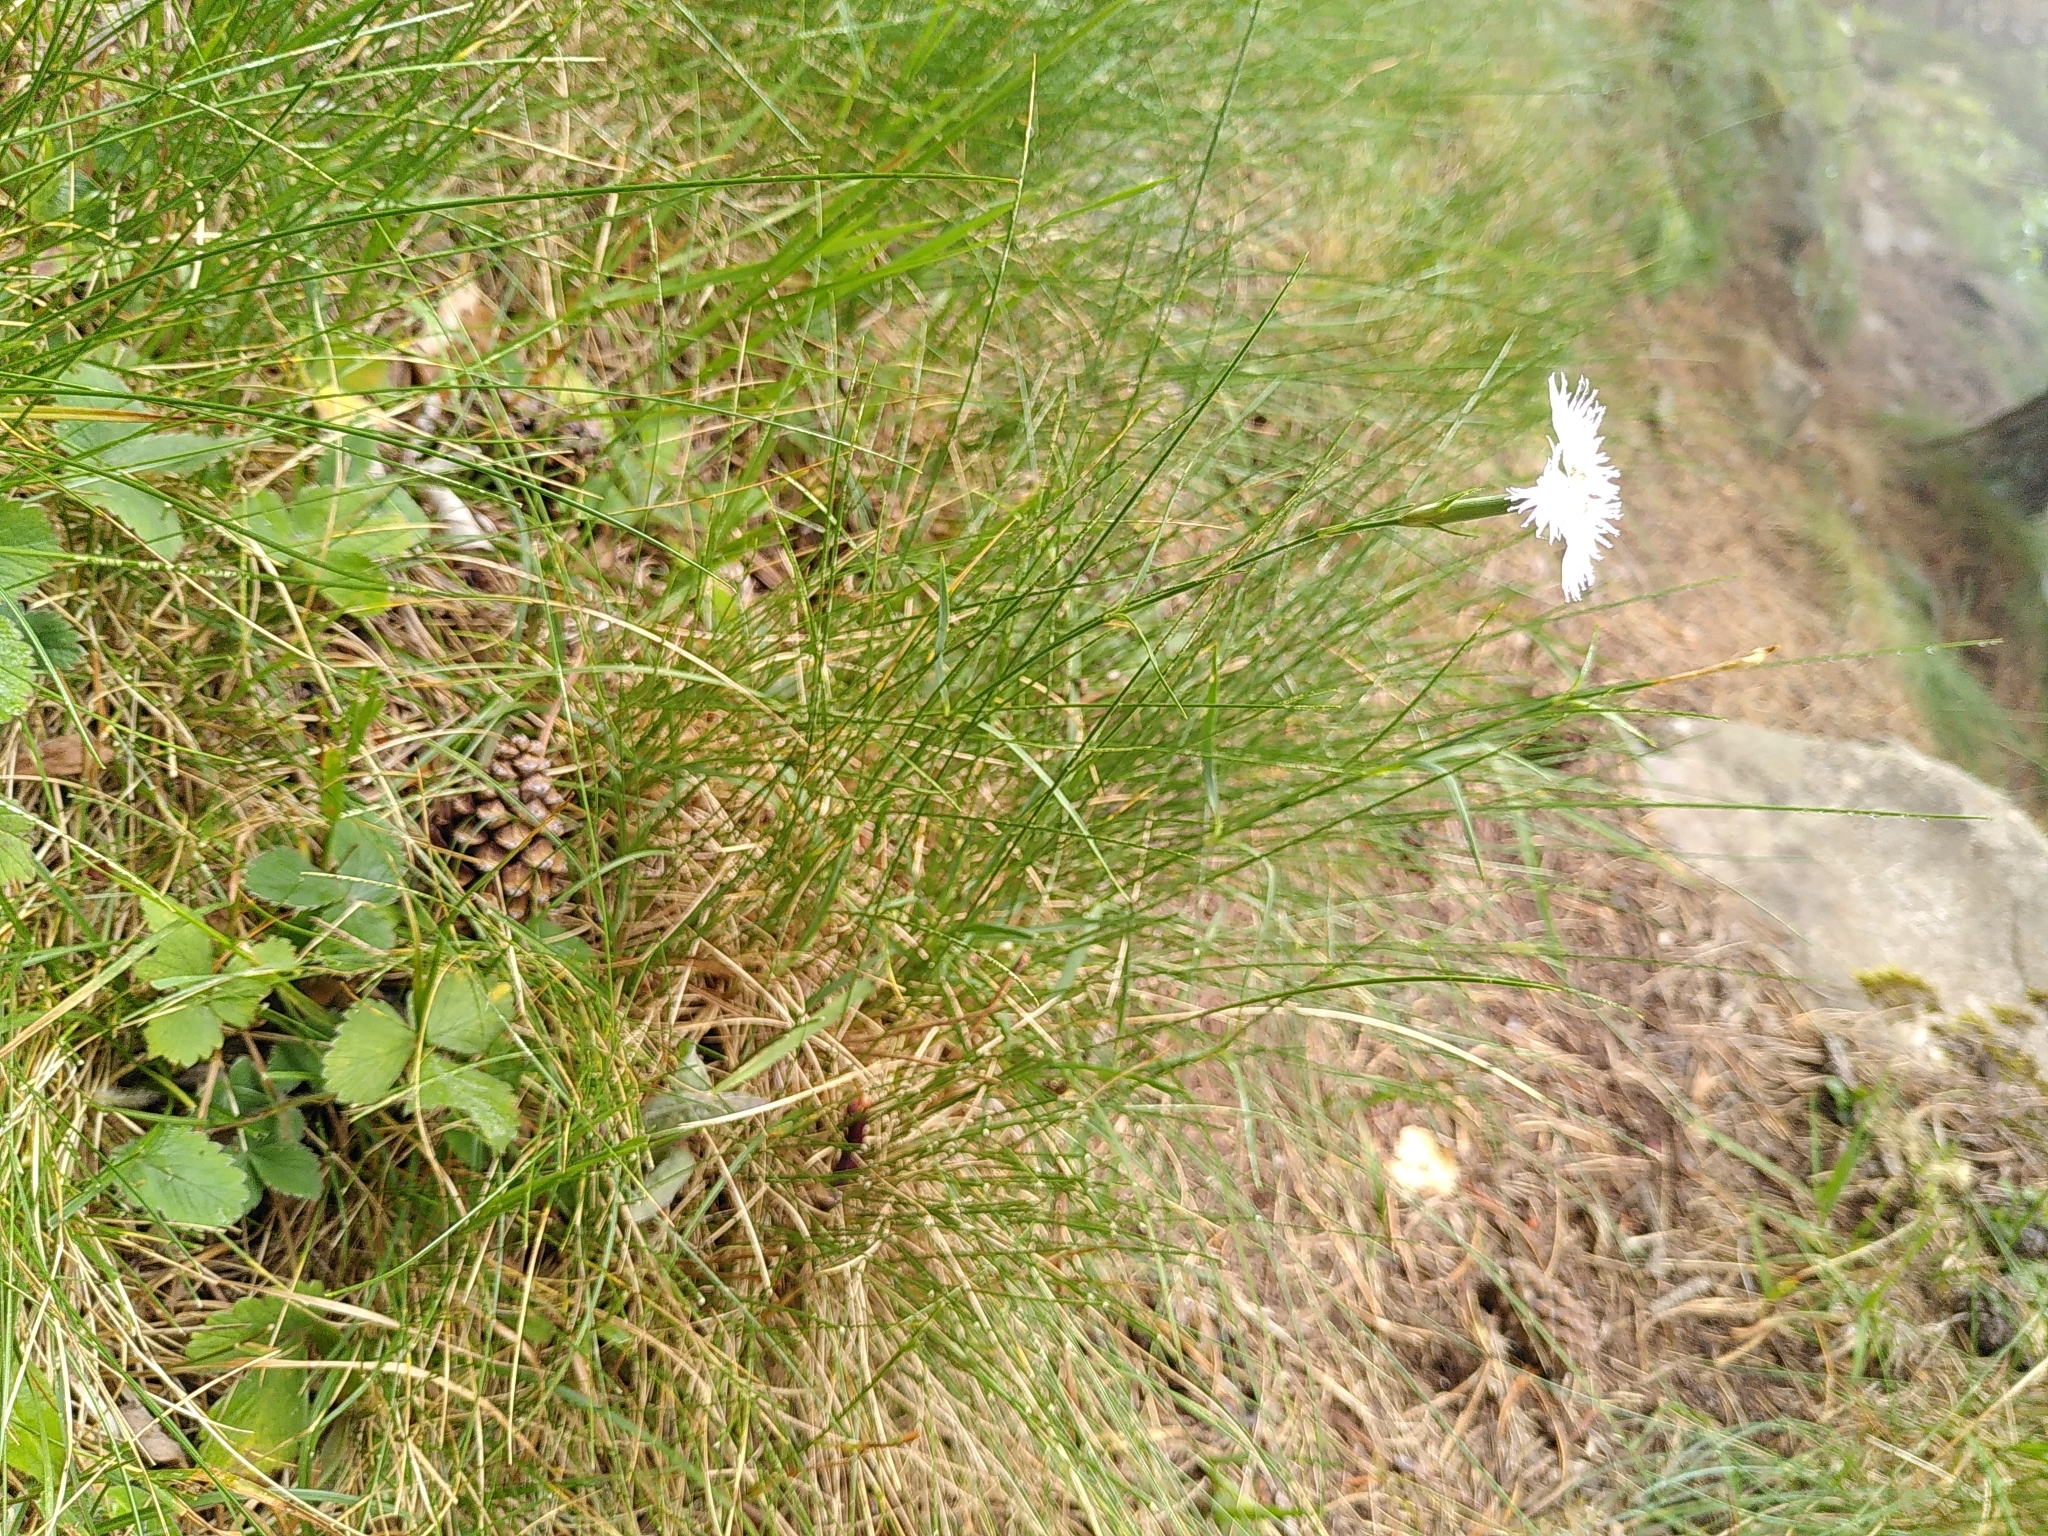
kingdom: Plantae
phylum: Tracheophyta
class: Magnoliopsida
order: Caryophyllales
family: Caryophyllaceae
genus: Dianthus
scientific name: Dianthus hyssopifolius
